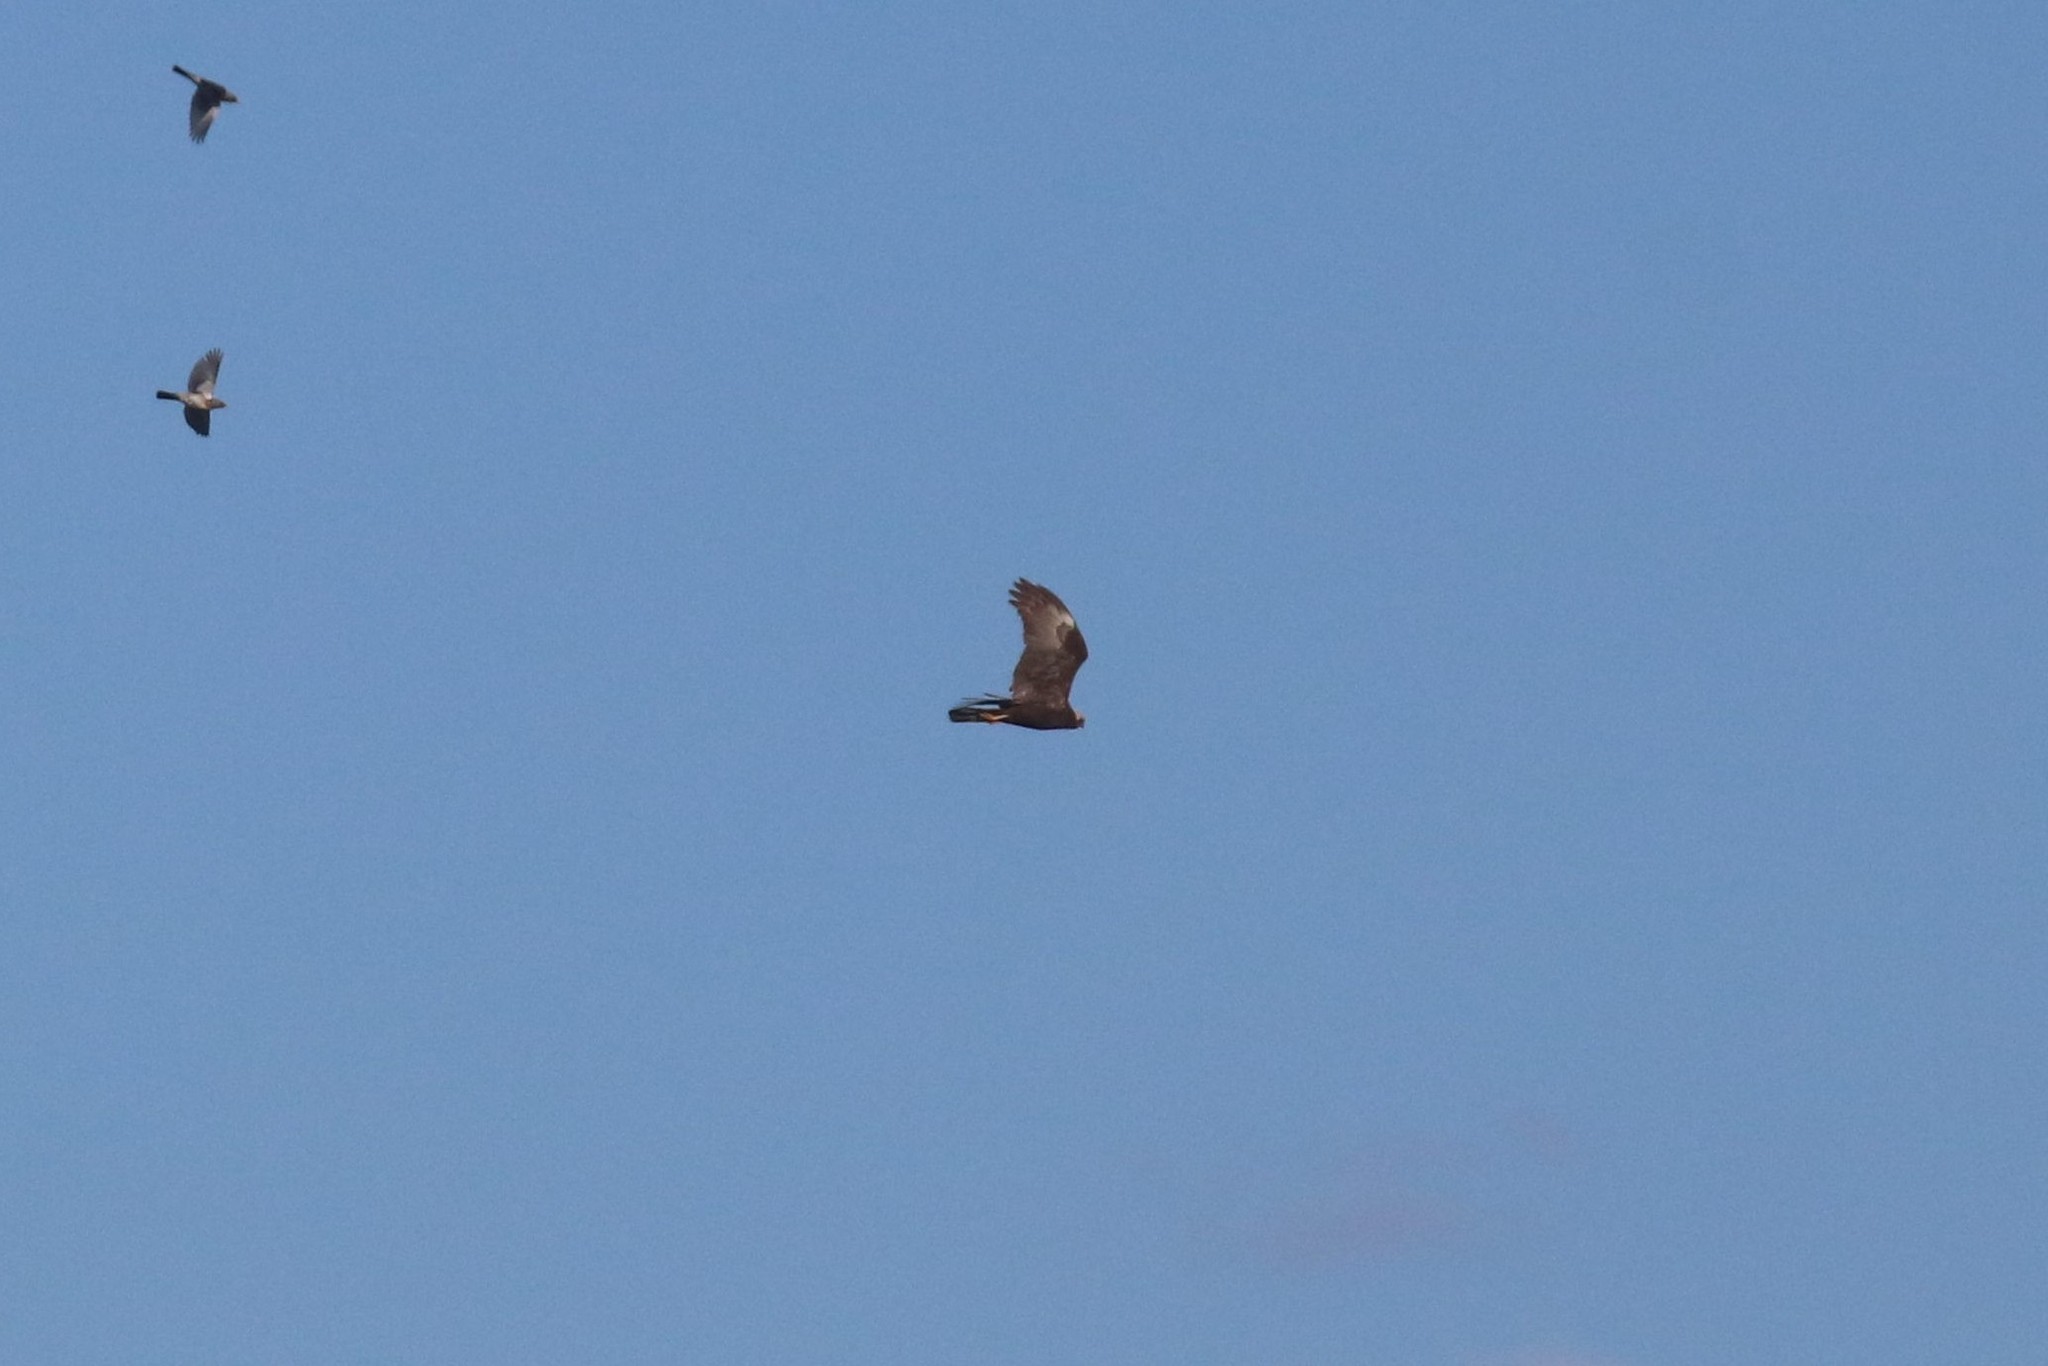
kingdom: Animalia
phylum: Chordata
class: Aves
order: Accipitriformes
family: Accipitridae
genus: Circus
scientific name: Circus aeruginosus
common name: Western marsh harrier
